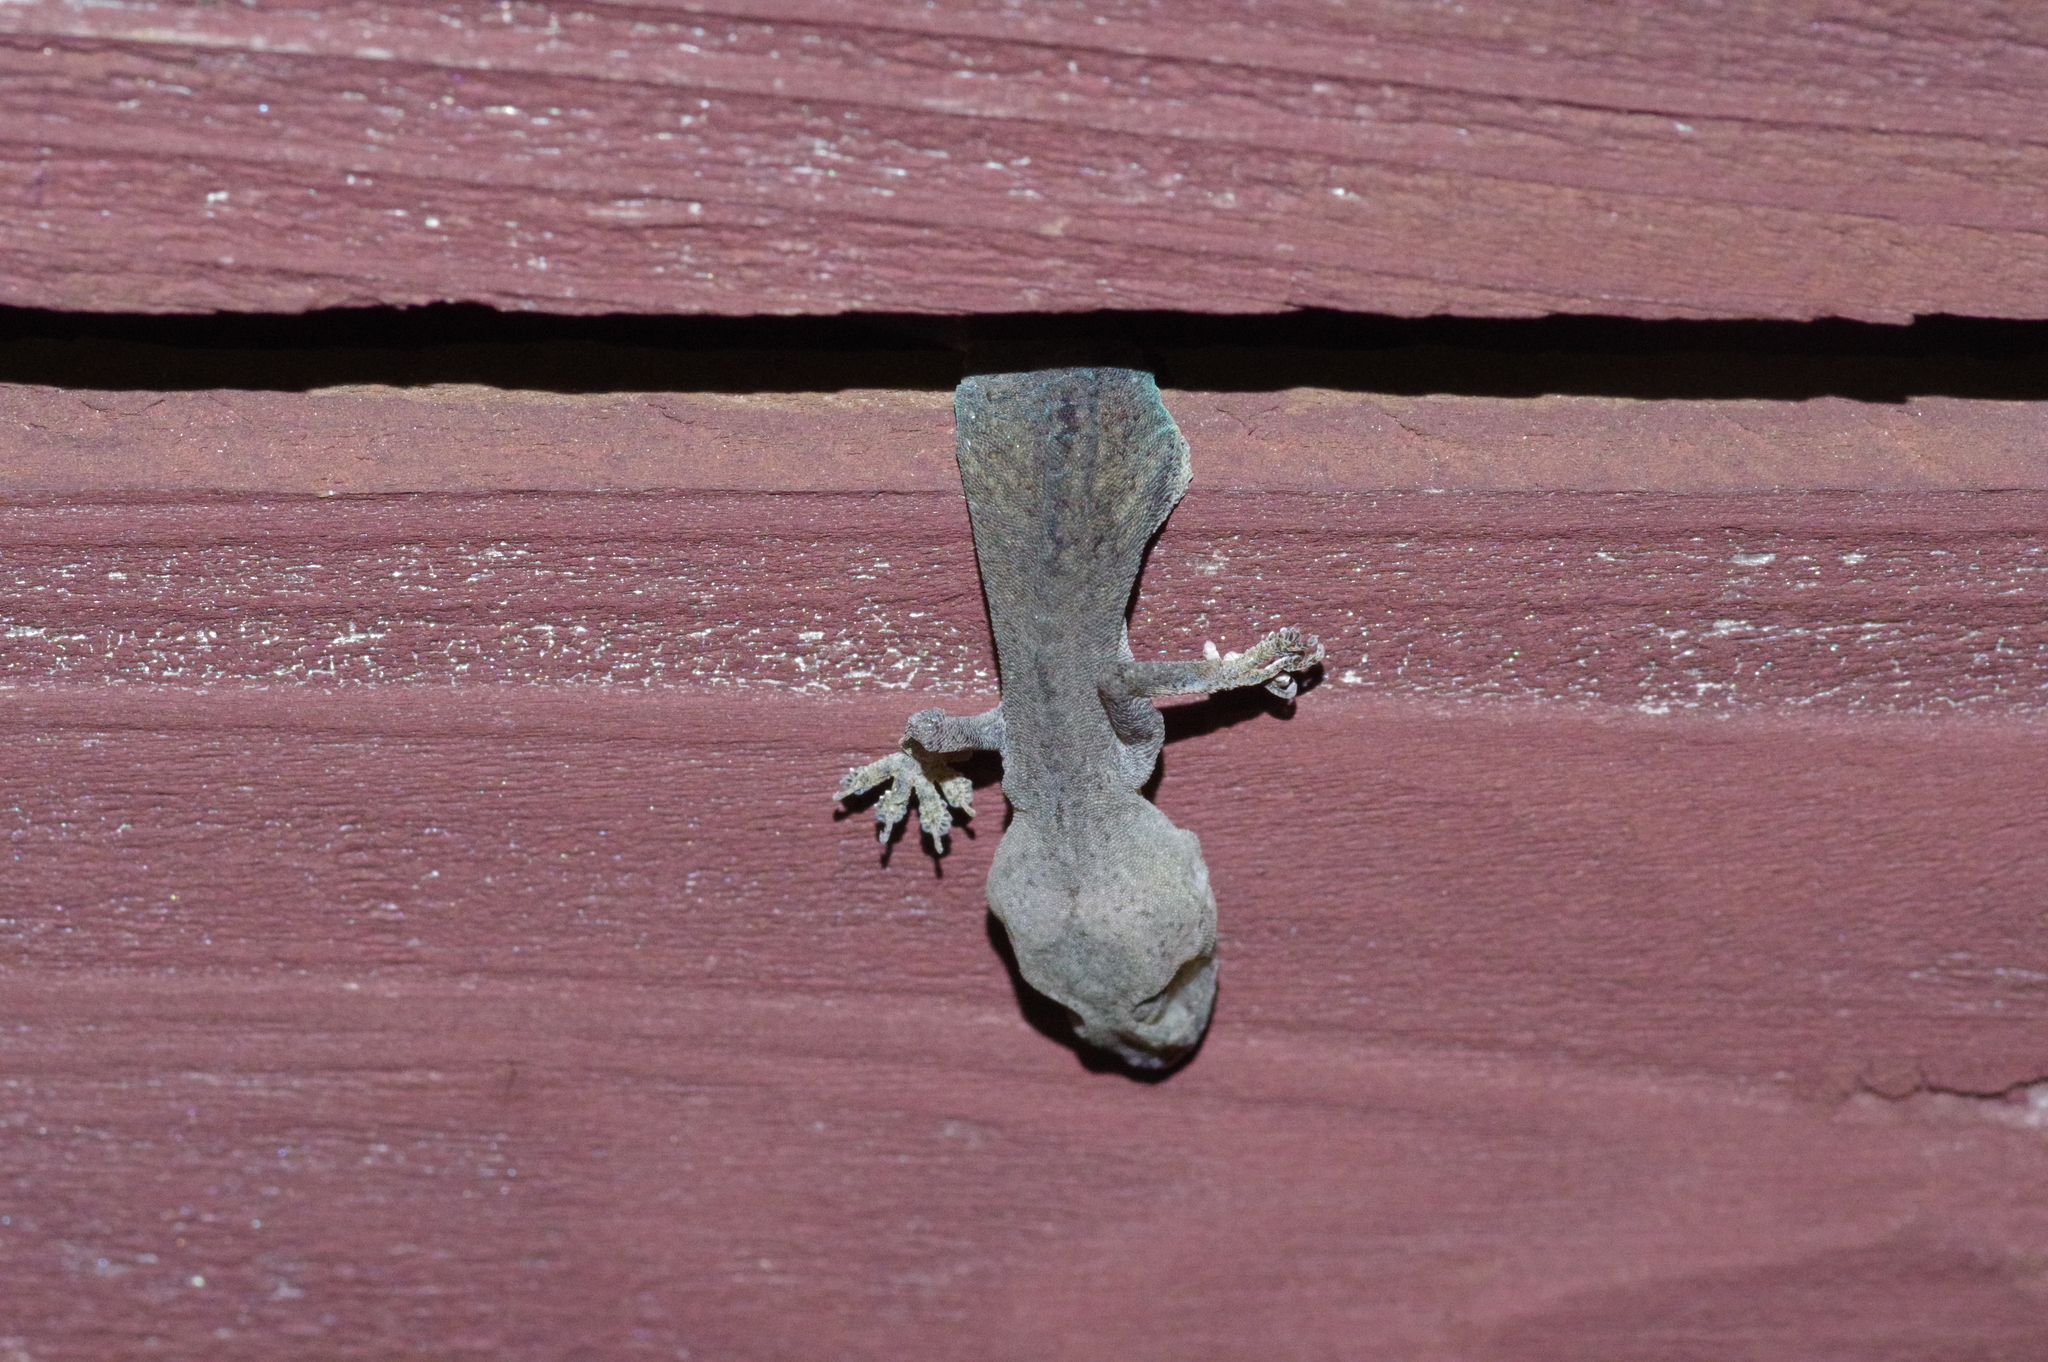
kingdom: Animalia
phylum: Chordata
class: Squamata
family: Gekkonidae
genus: Hemidactylus
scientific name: Hemidactylus frenatus
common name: Common house gecko
